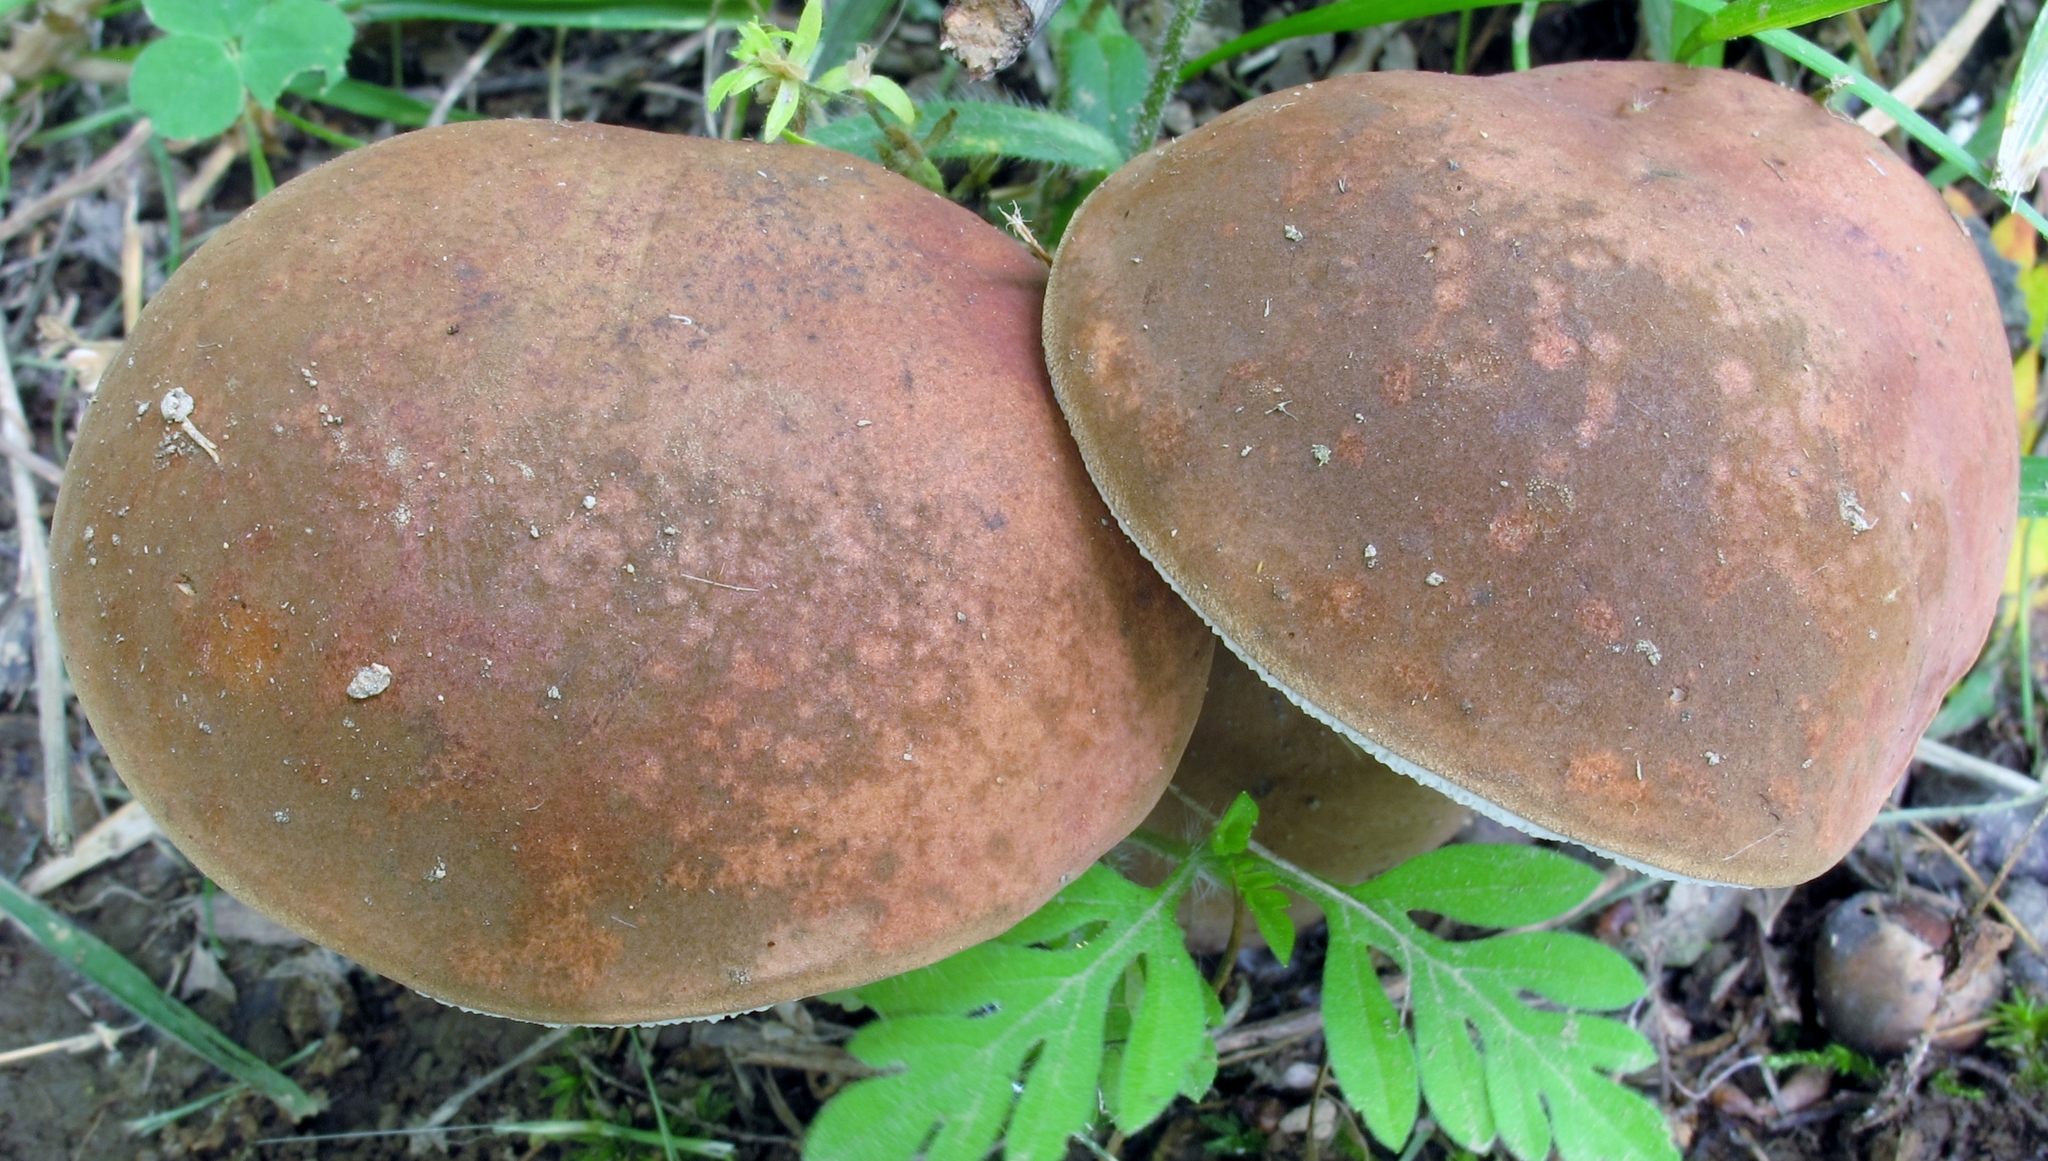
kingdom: Fungi
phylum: Basidiomycota
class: Agaricomycetes
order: Boletales
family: Boletaceae
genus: Tylopilus
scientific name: Tylopilus badiceps
